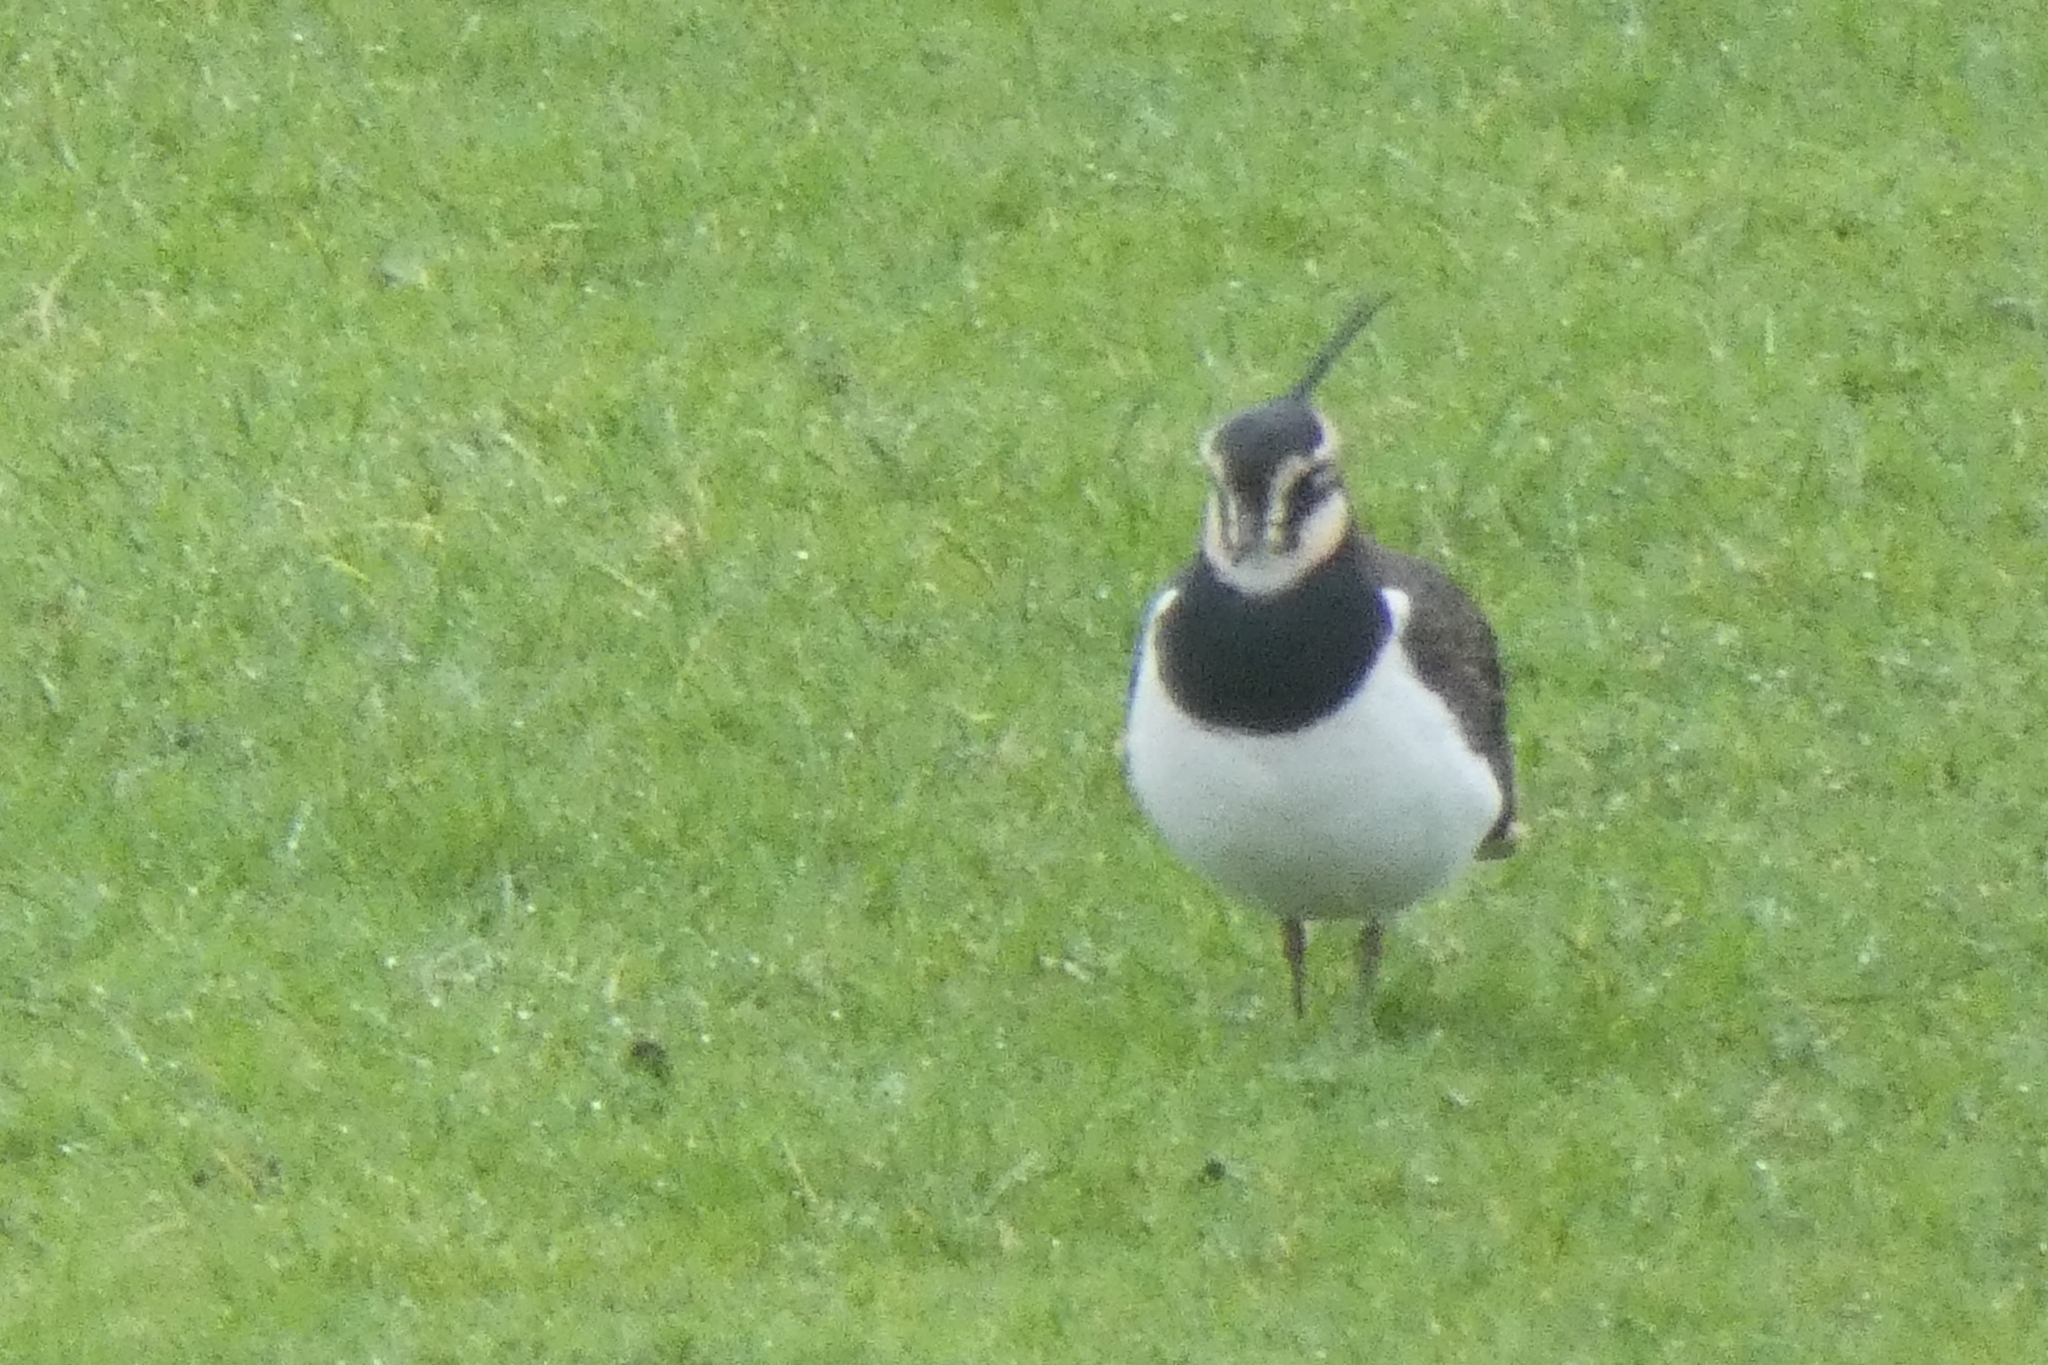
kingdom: Animalia
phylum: Chordata
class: Aves
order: Charadriiformes
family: Charadriidae
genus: Vanellus
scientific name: Vanellus vanellus
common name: Northern lapwing
